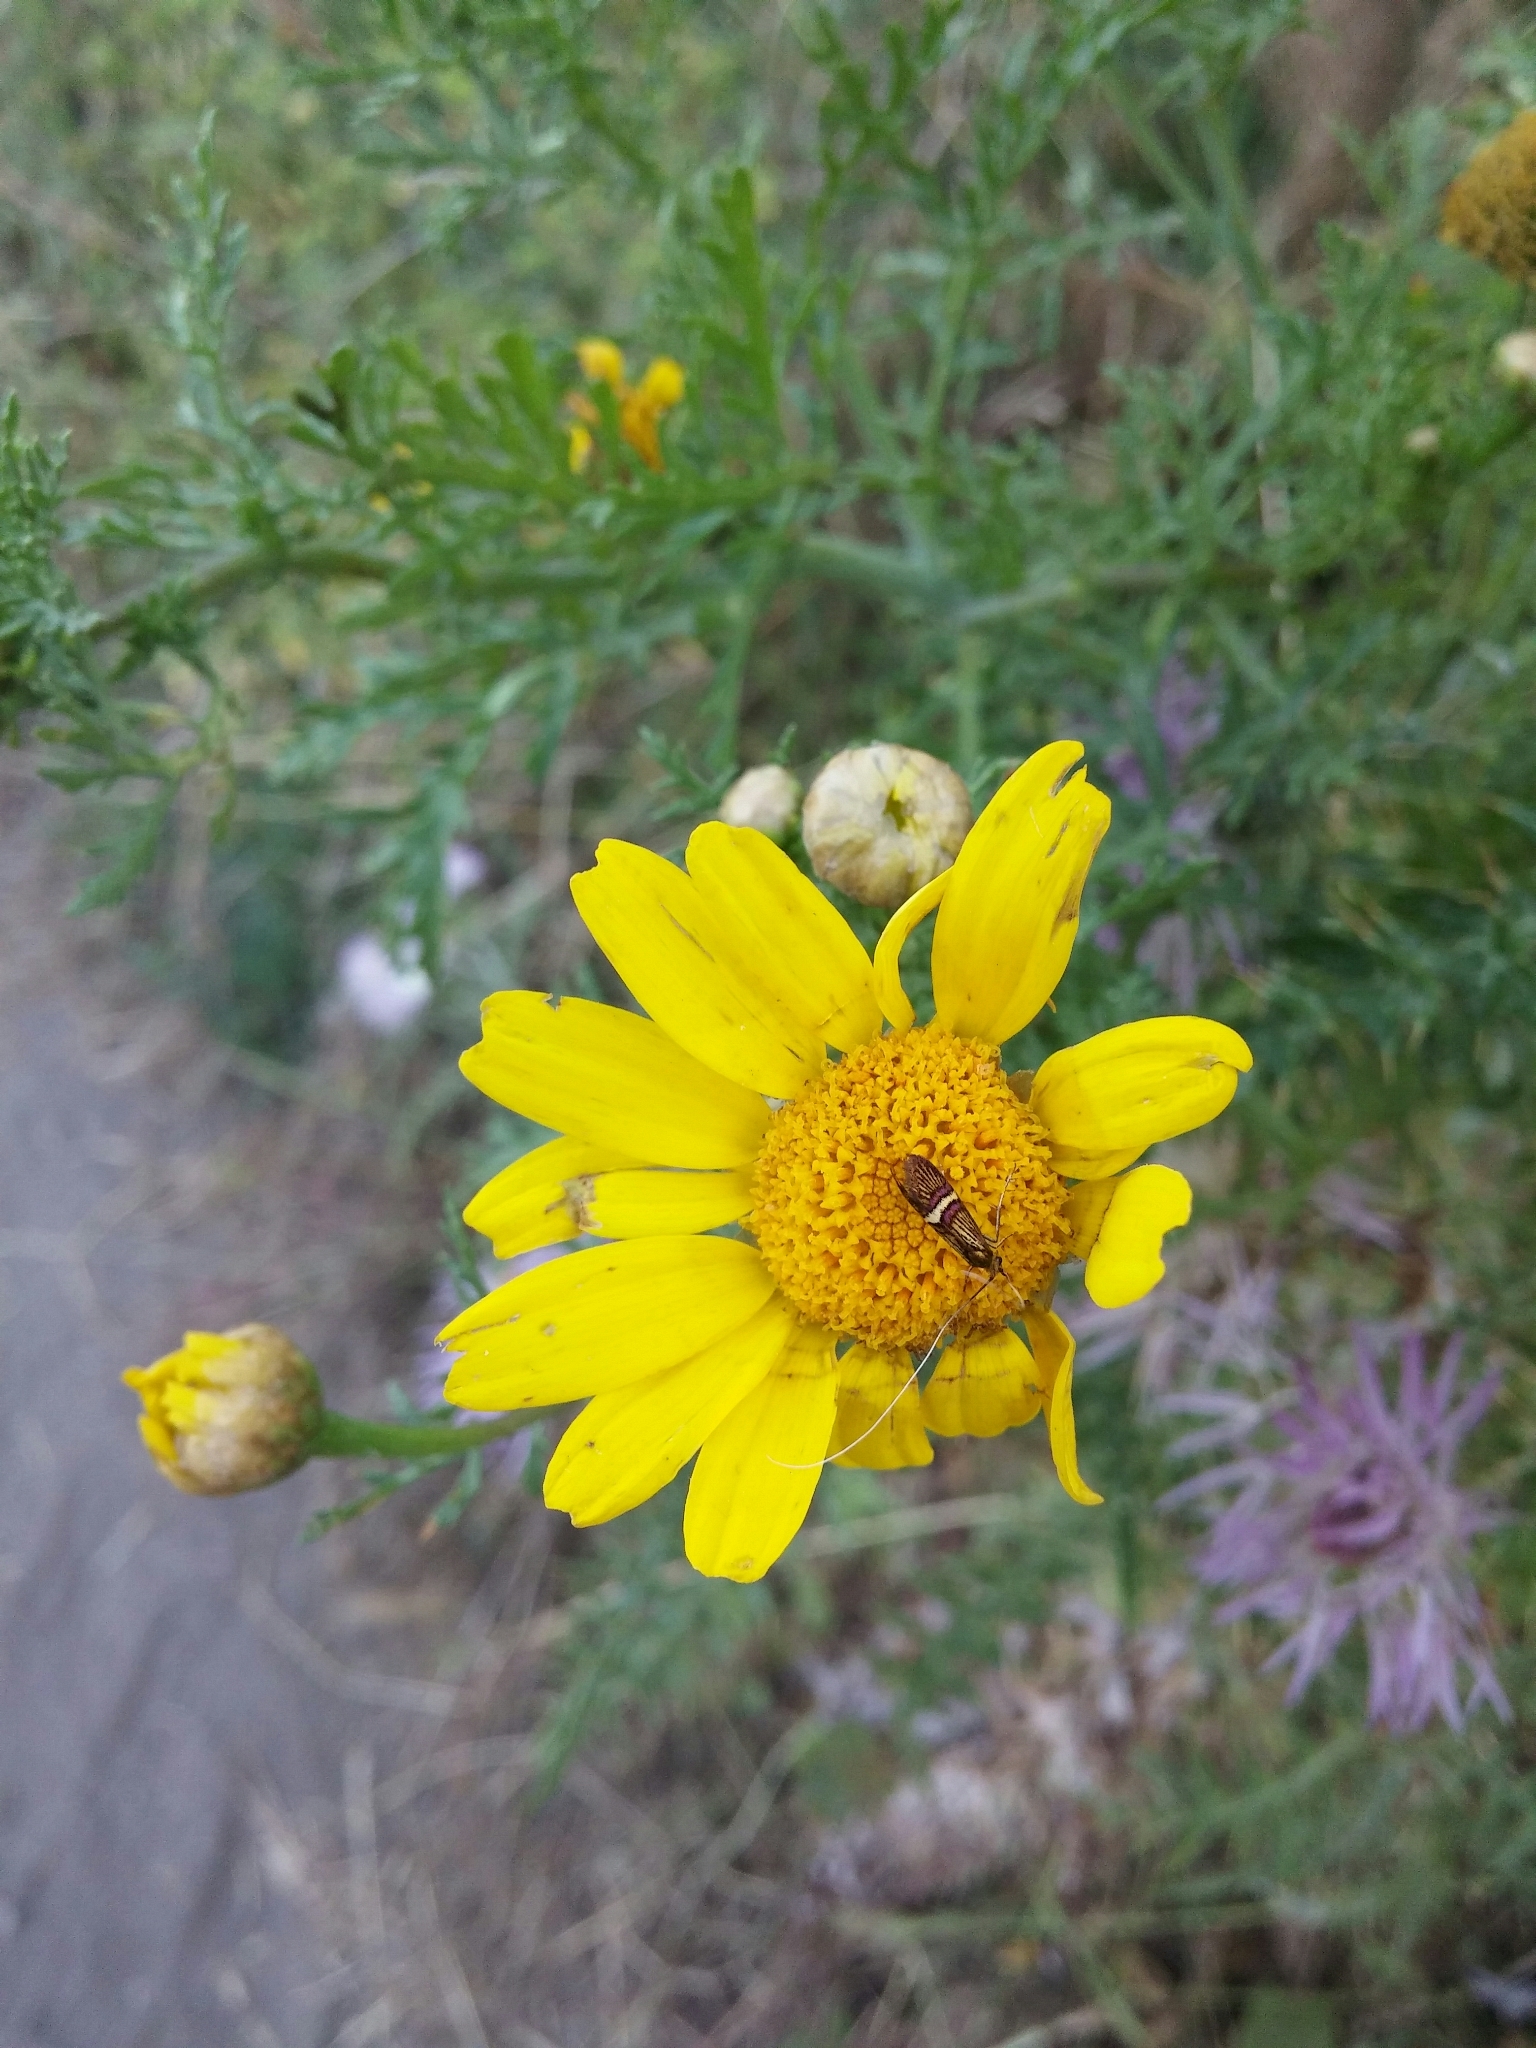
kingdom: Animalia
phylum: Arthropoda
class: Insecta
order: Lepidoptera
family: Adelidae
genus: Adela
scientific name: Adela croesella
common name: Small barred long-horn
